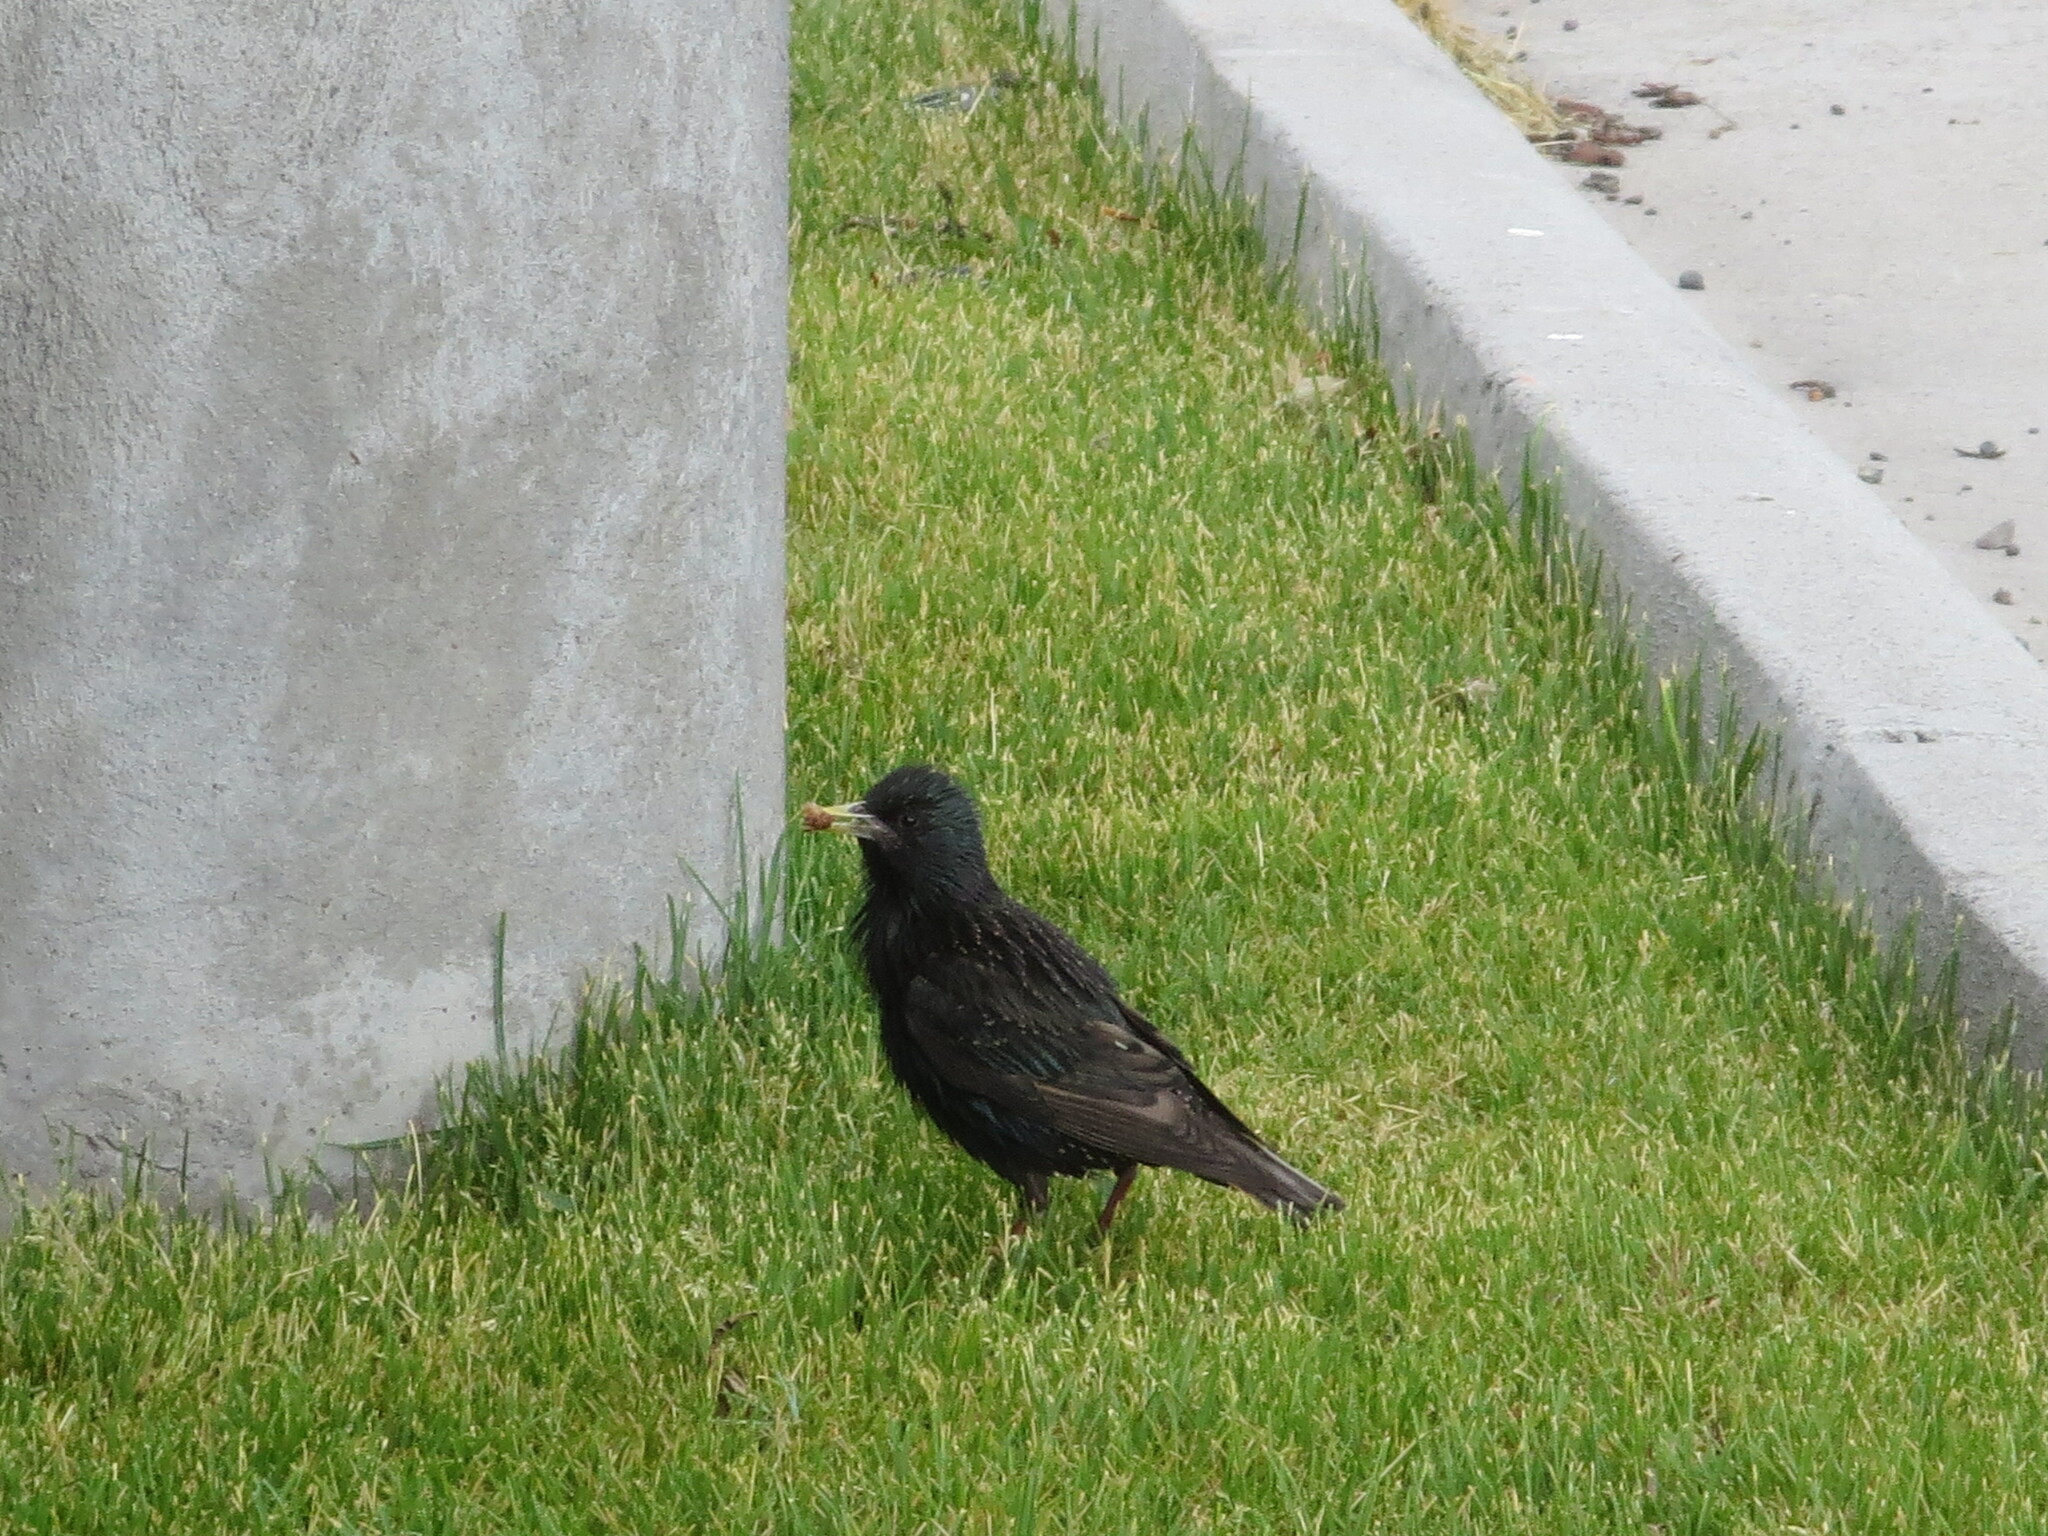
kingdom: Animalia
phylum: Chordata
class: Aves
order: Passeriformes
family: Sturnidae
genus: Sturnus
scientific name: Sturnus vulgaris
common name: Common starling
